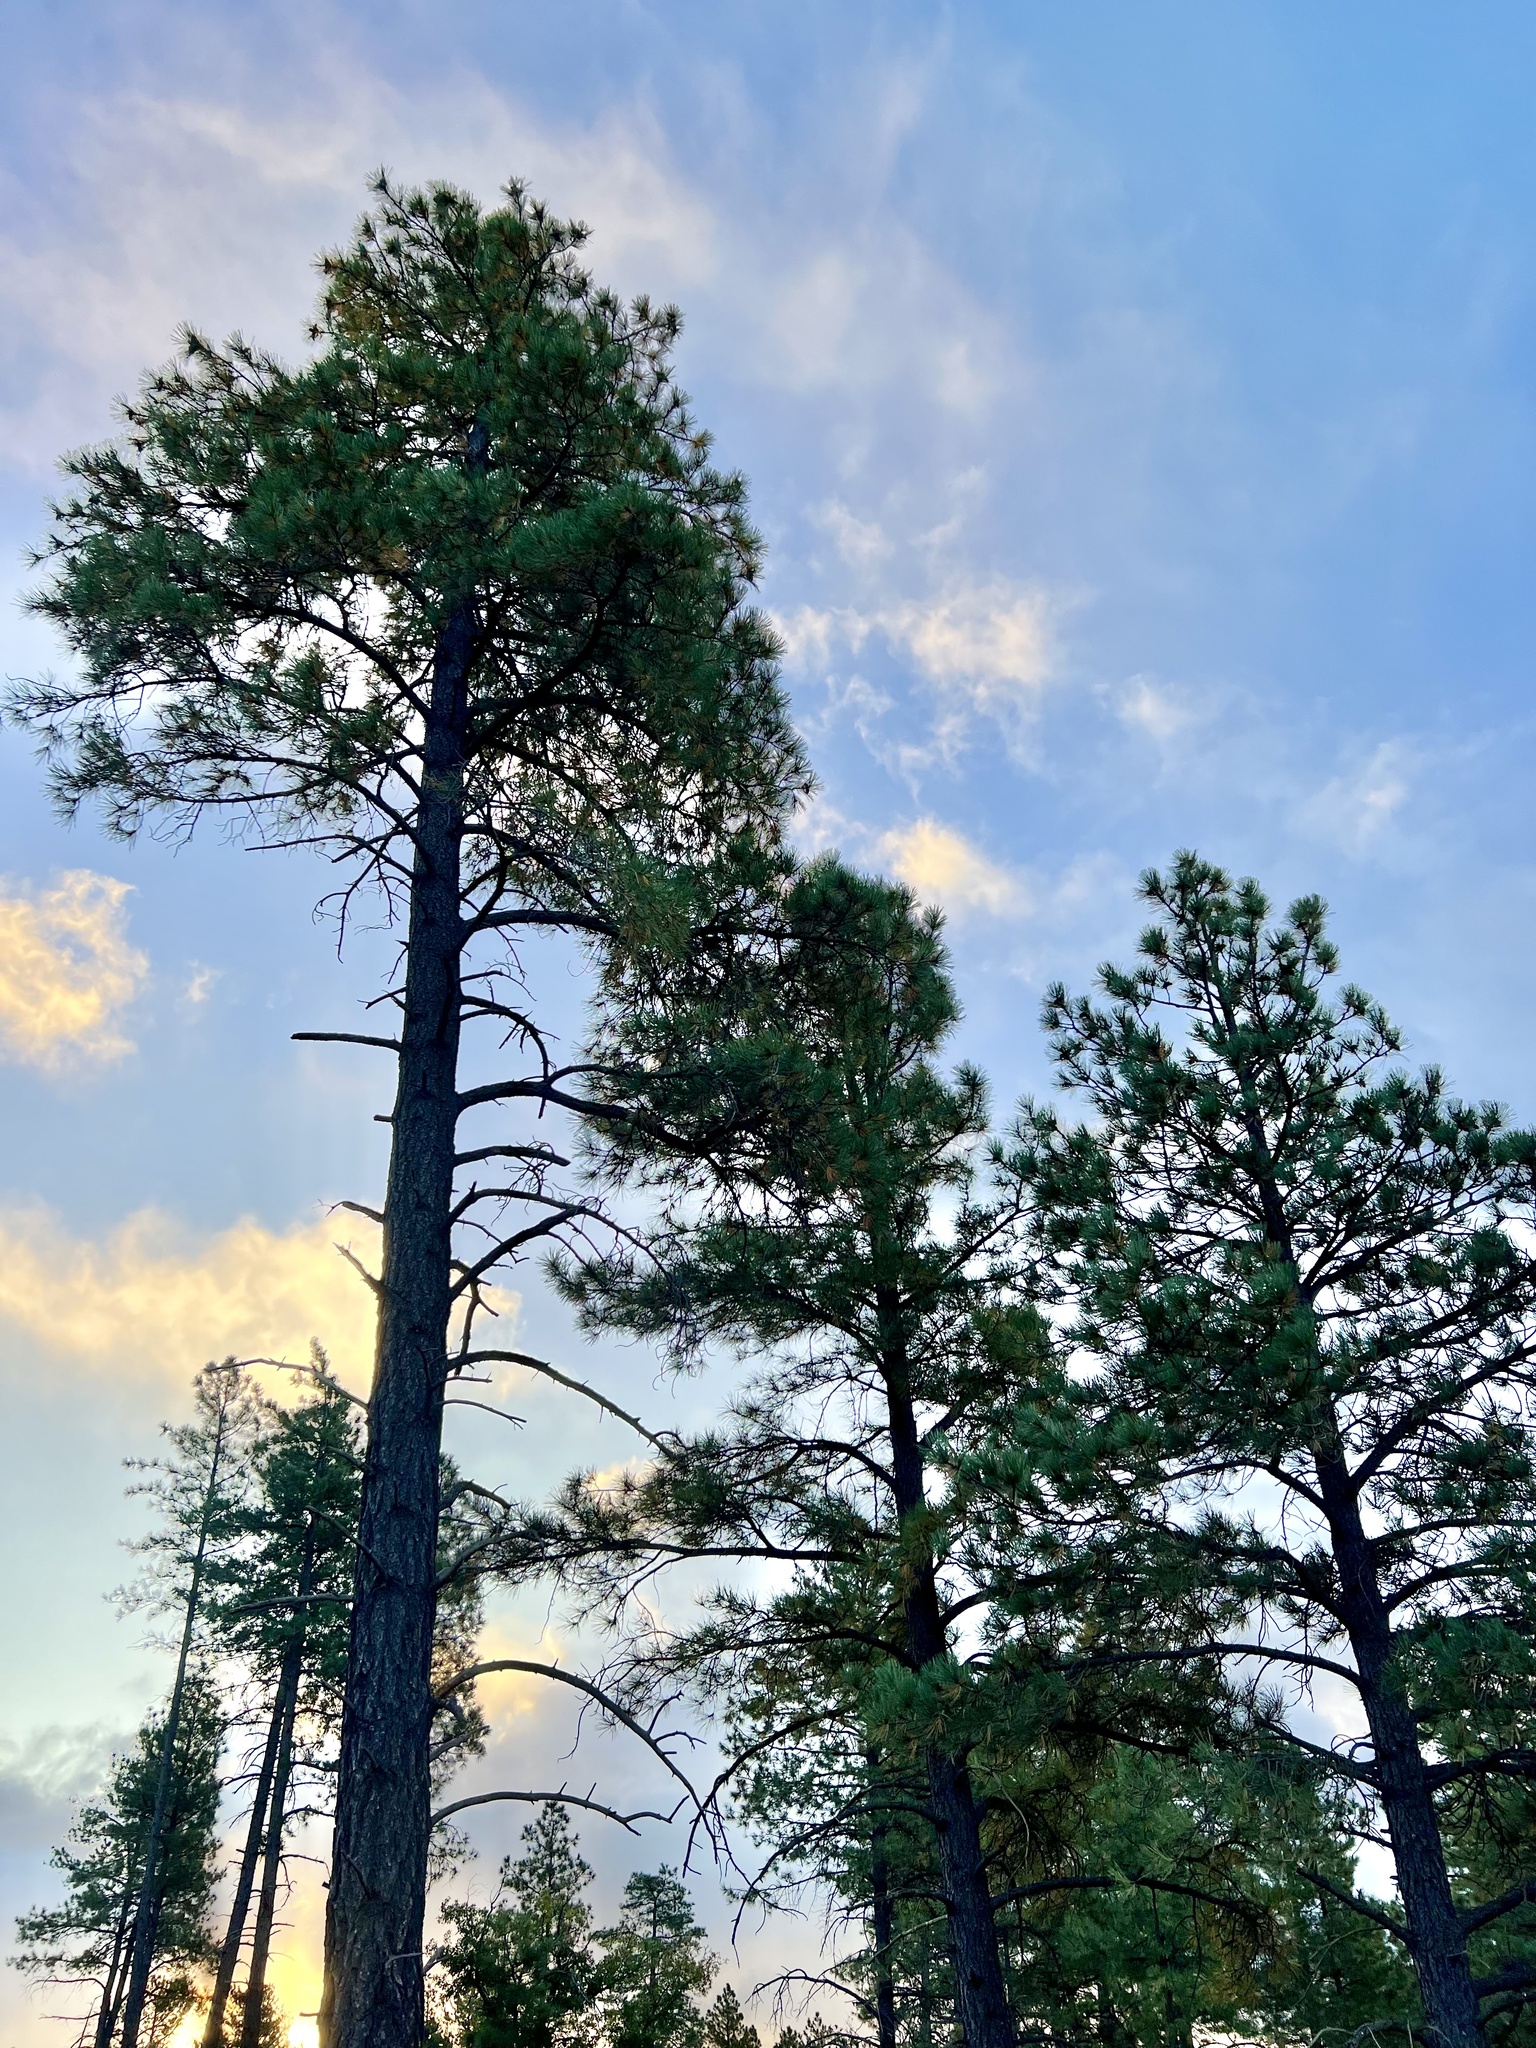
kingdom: Plantae
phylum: Tracheophyta
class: Pinopsida
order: Pinales
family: Pinaceae
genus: Pinus
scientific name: Pinus ponderosa
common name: Western yellow-pine
